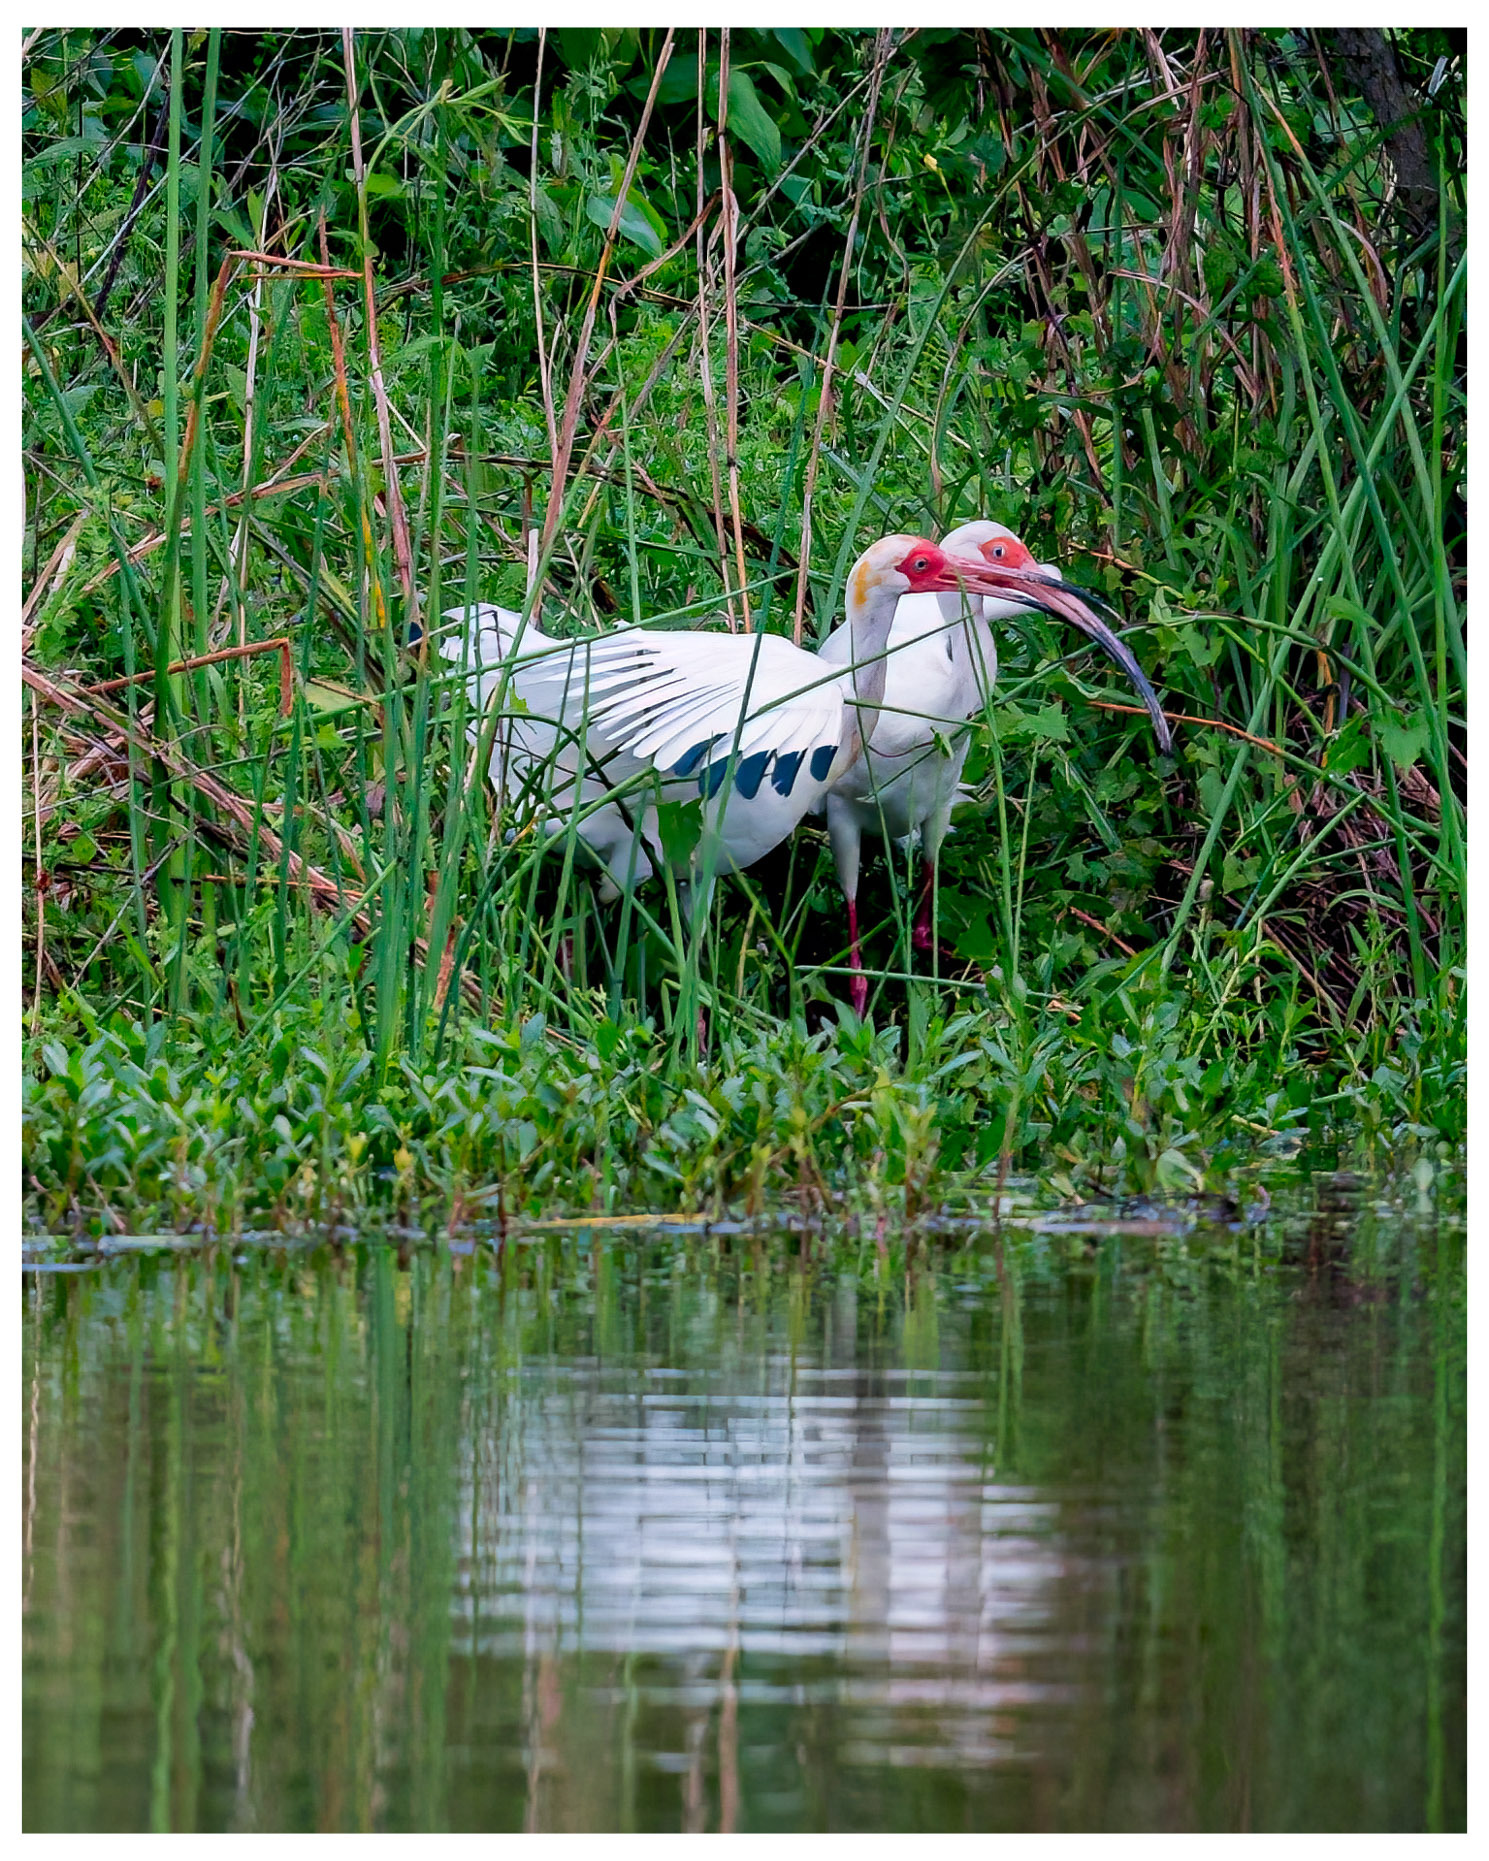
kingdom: Animalia
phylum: Chordata
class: Aves
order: Pelecaniformes
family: Threskiornithidae
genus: Eudocimus
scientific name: Eudocimus albus
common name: White ibis
